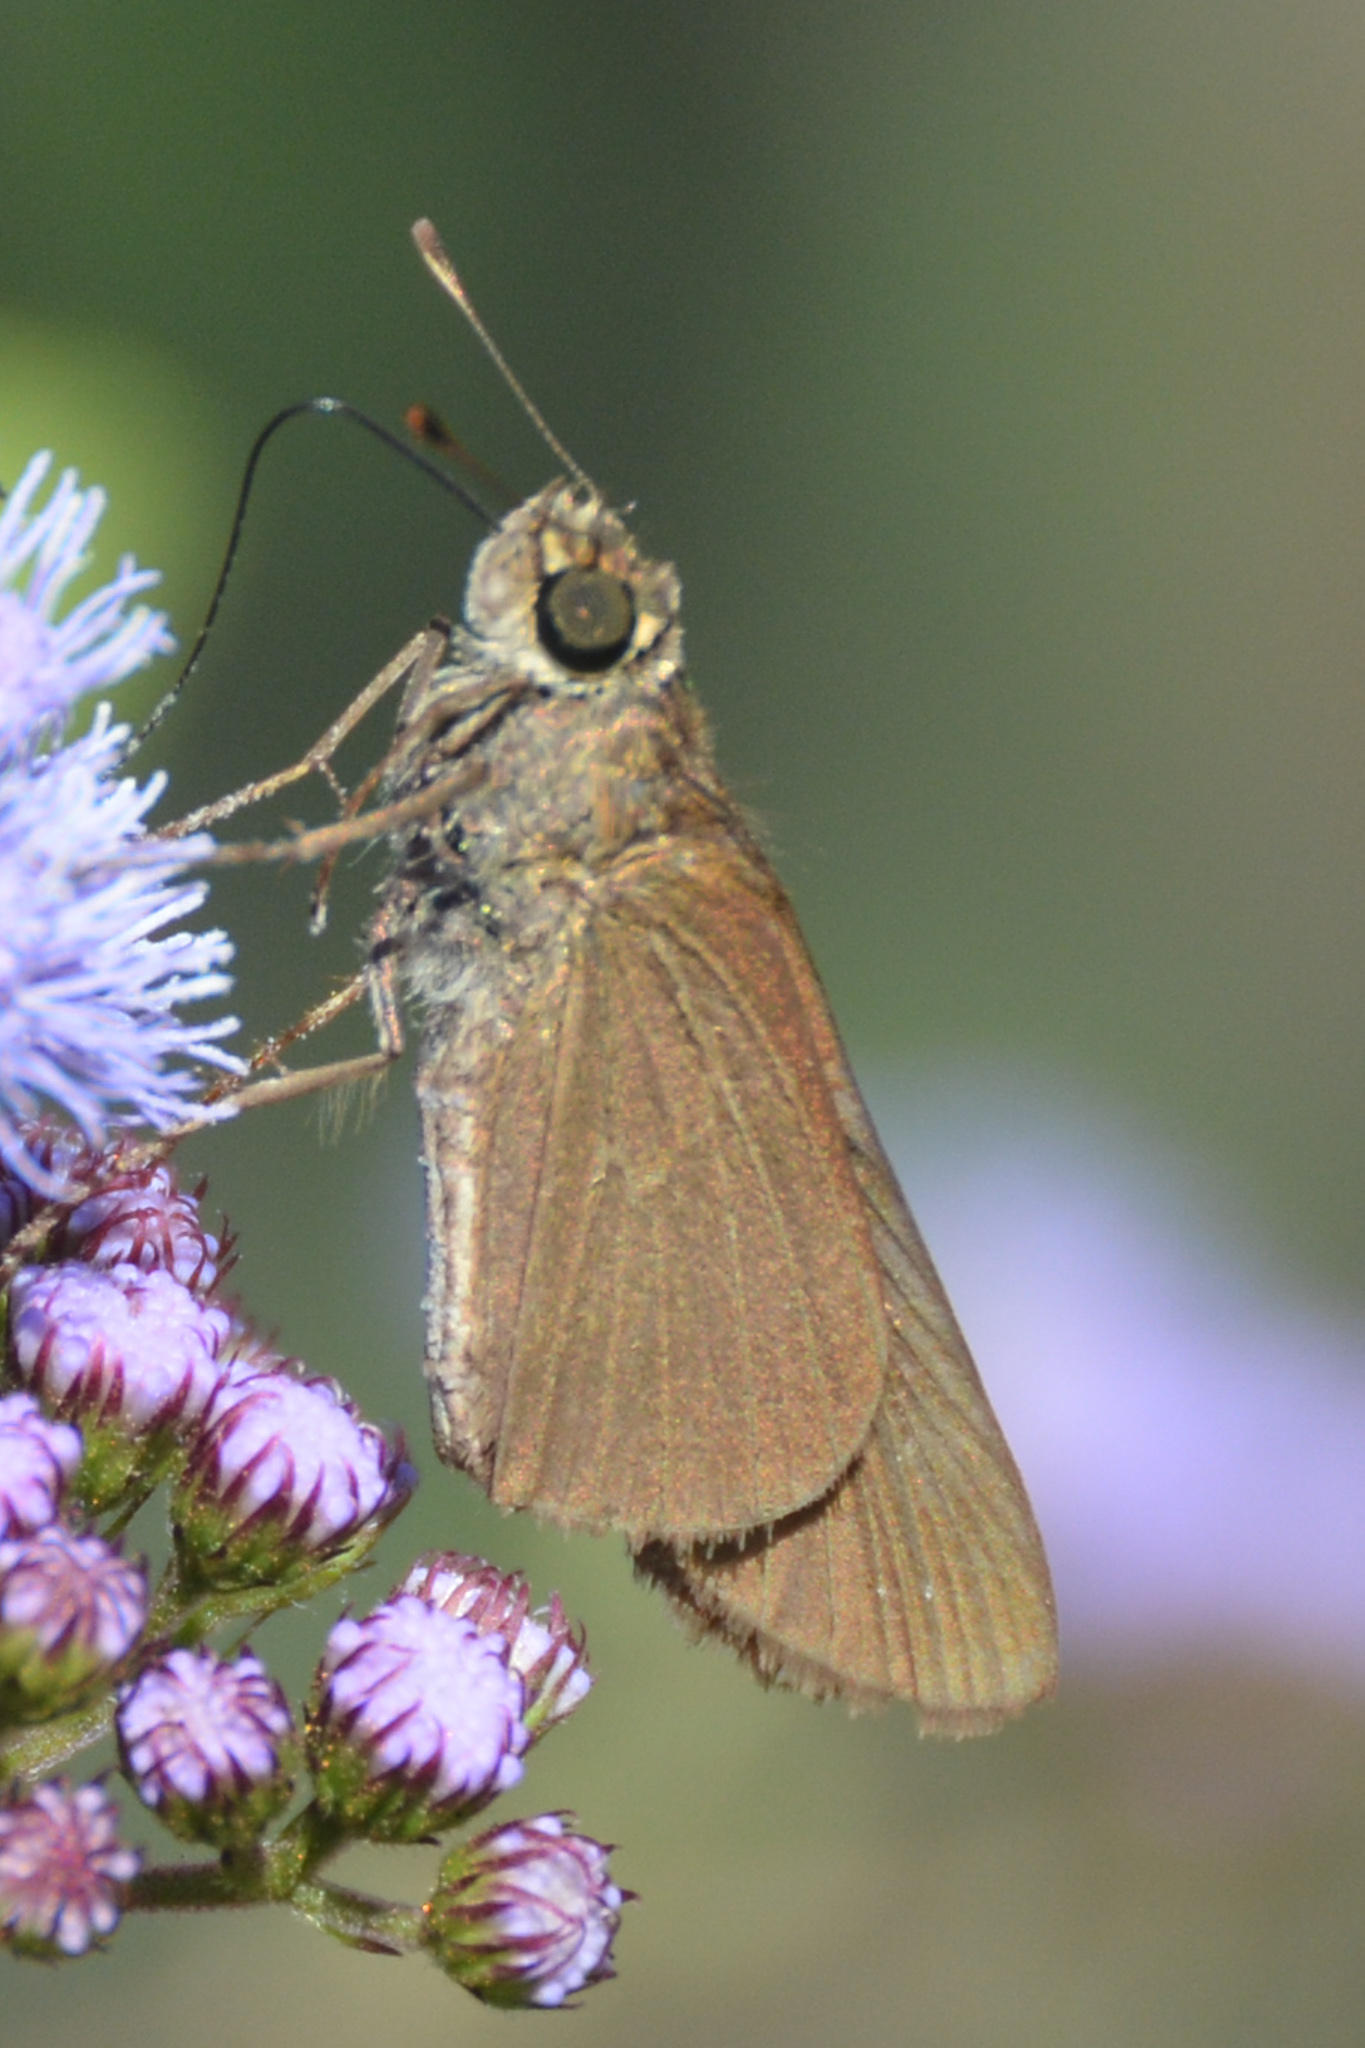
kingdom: Animalia
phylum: Arthropoda
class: Insecta
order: Lepidoptera
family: Hesperiidae
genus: Panoquina
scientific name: Panoquina ocola
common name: Ocola skipper
